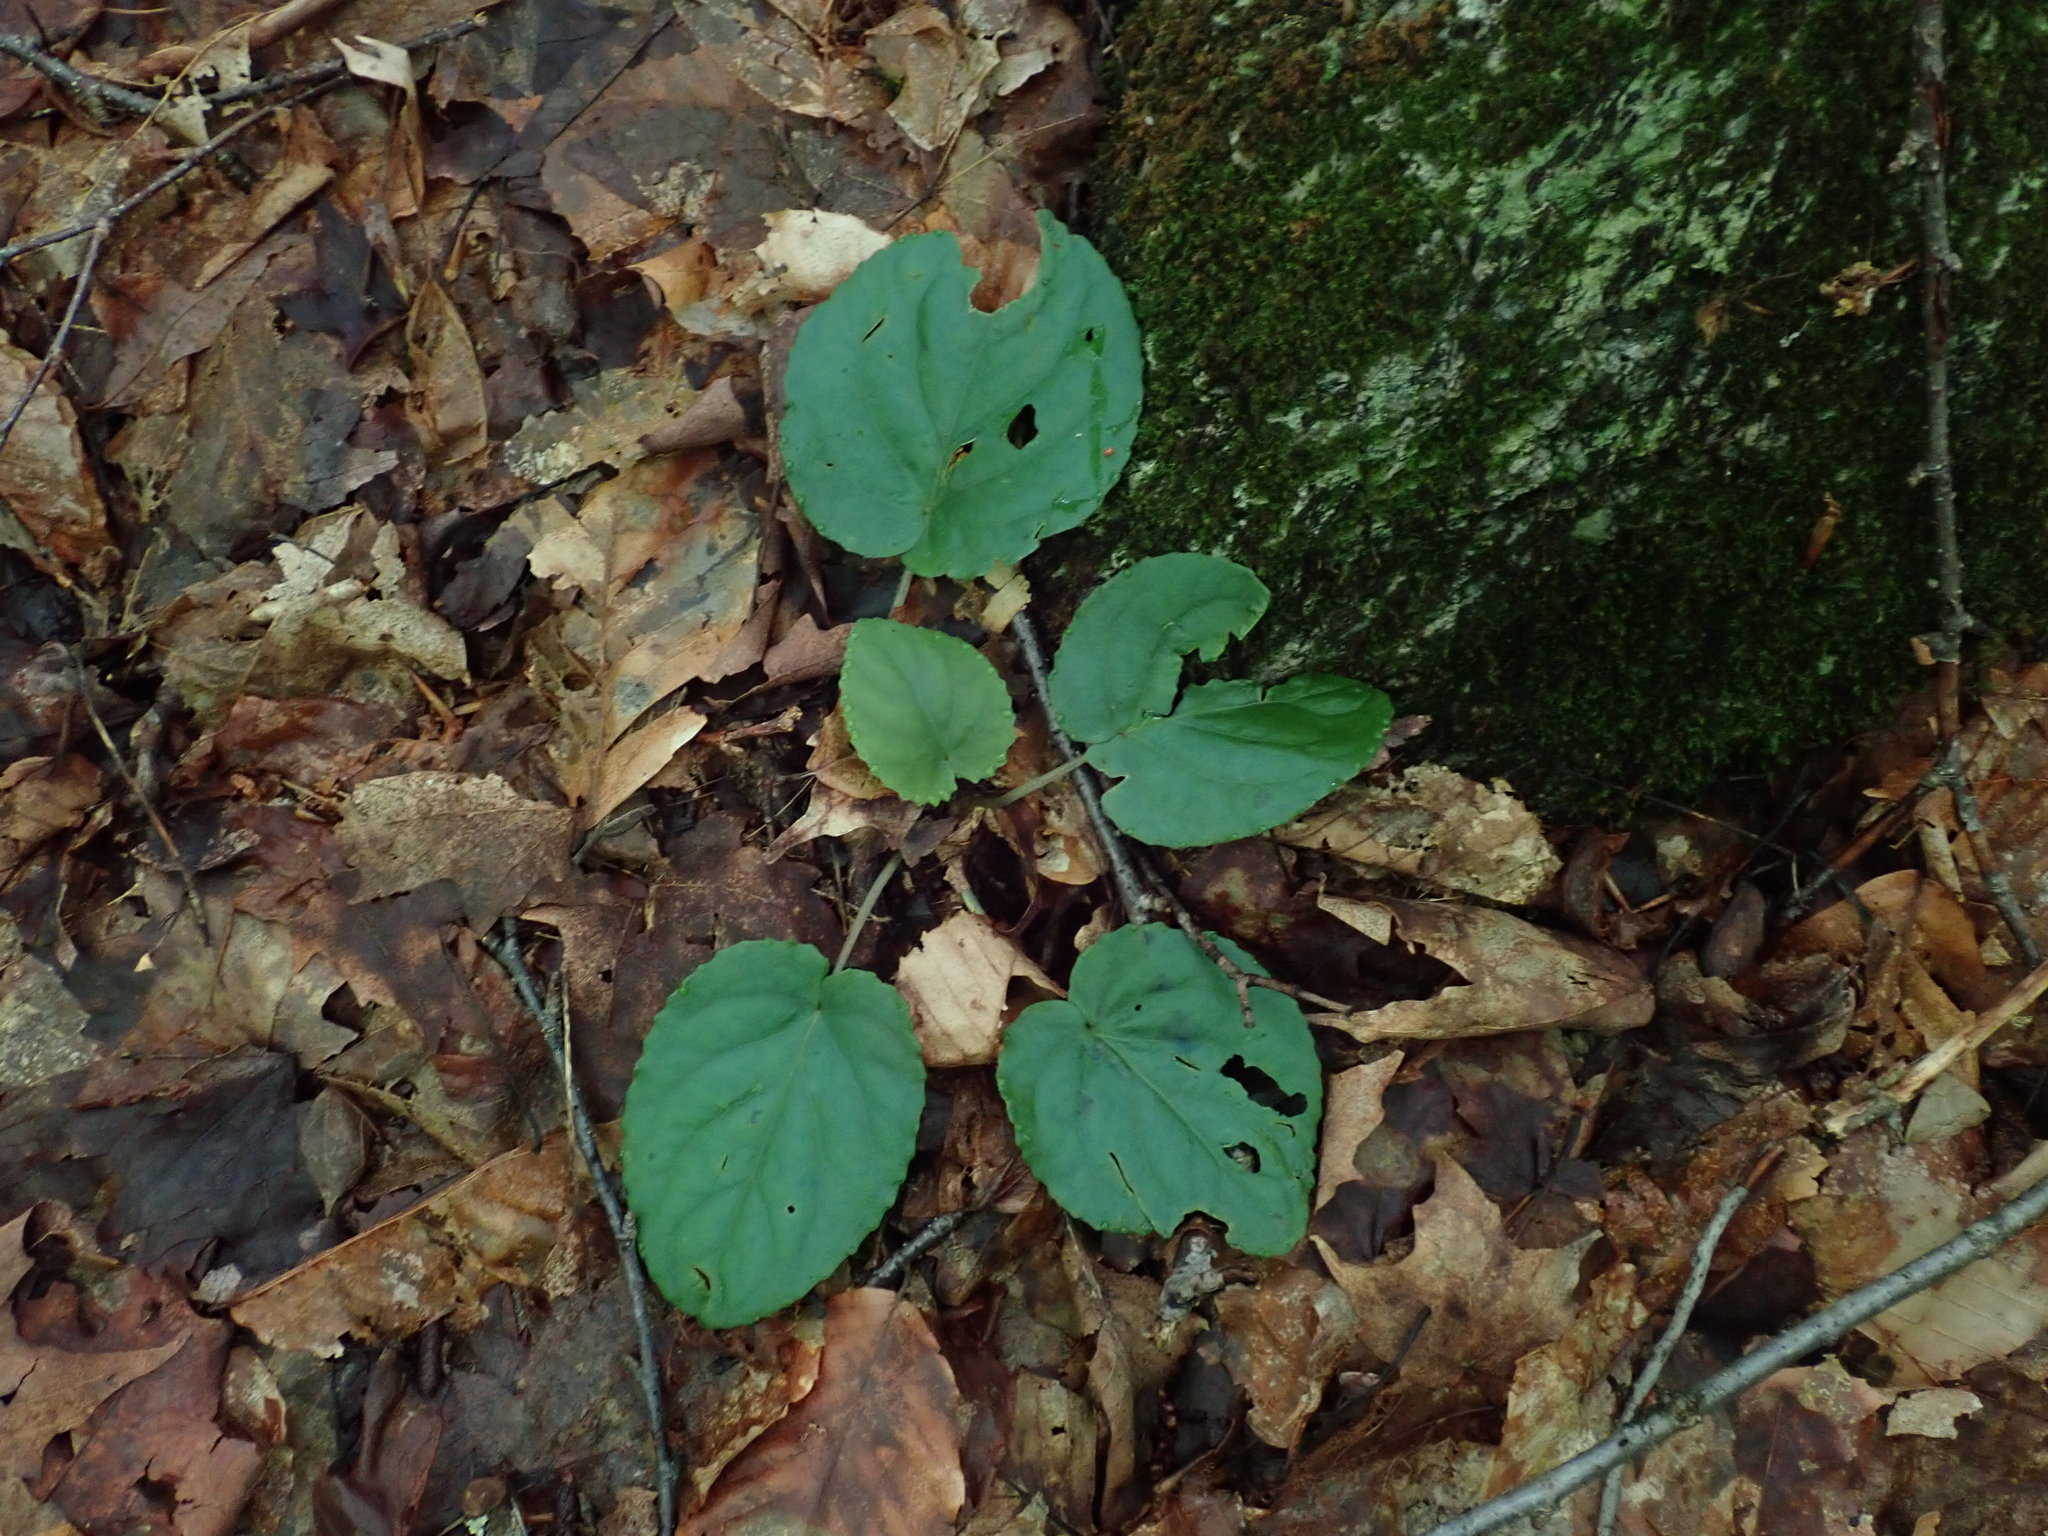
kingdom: Plantae
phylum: Tracheophyta
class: Magnoliopsida
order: Malpighiales
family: Violaceae
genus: Viola
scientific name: Viola rotundifolia
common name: Early yellow violet
